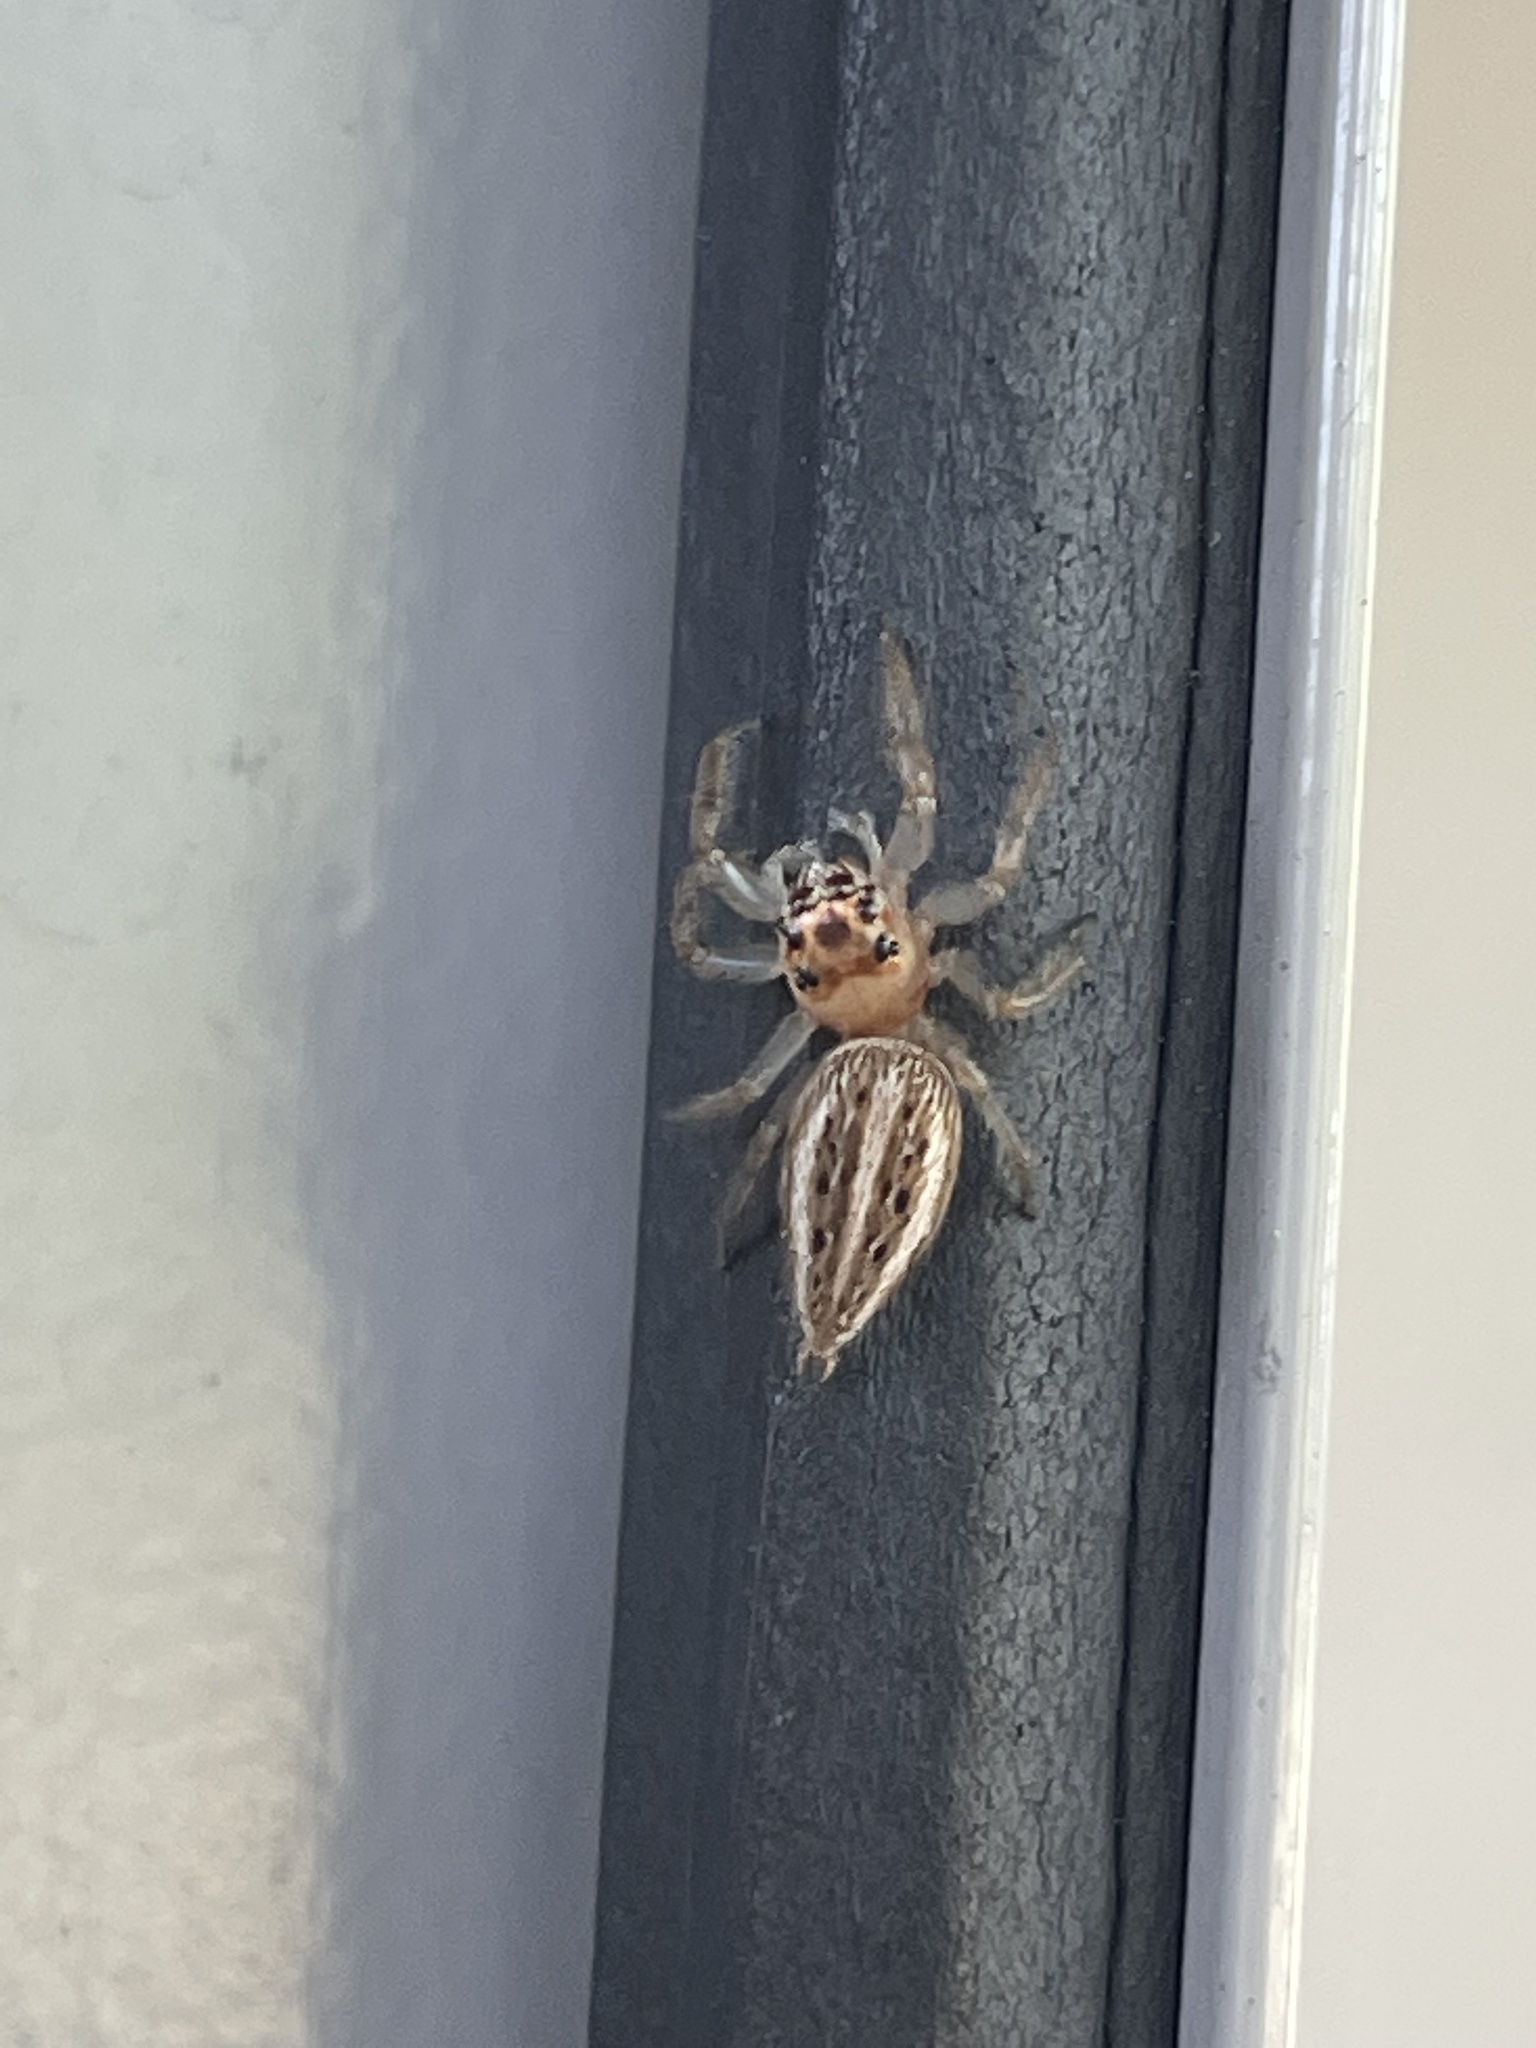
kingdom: Animalia
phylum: Arthropoda
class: Arachnida
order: Araneae
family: Salticidae
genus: Colonus
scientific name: Colonus sylvanus
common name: Jumping spiders
